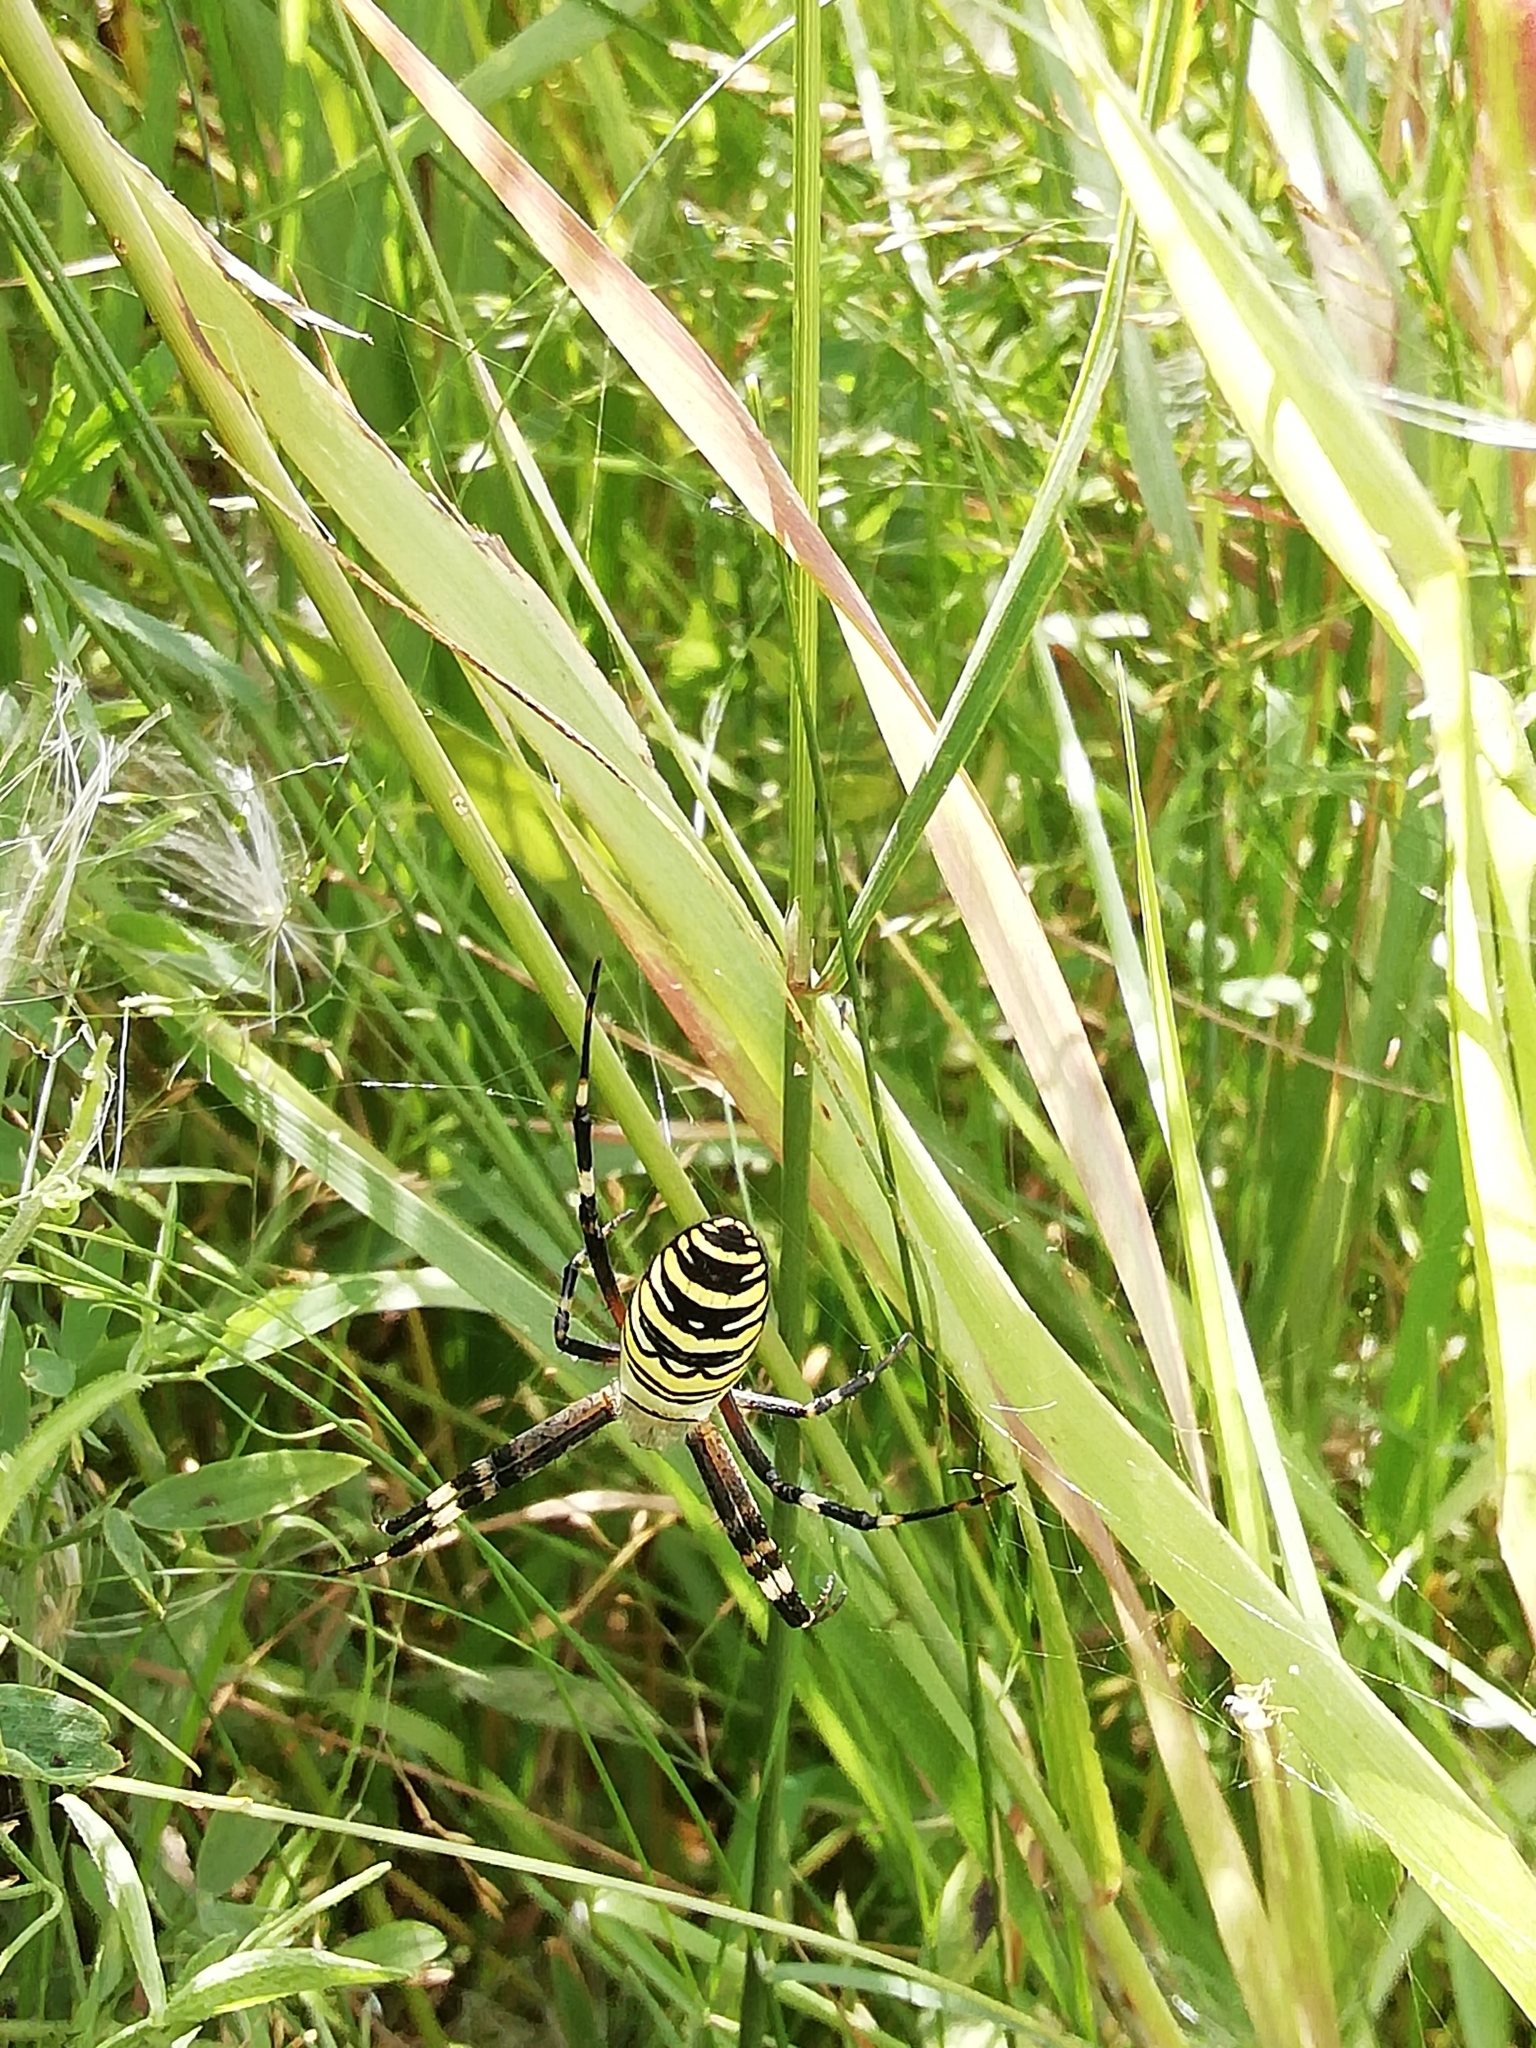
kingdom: Animalia
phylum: Arthropoda
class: Arachnida
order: Araneae
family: Araneidae
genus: Argiope
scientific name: Argiope bruennichi
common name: Wasp spider
